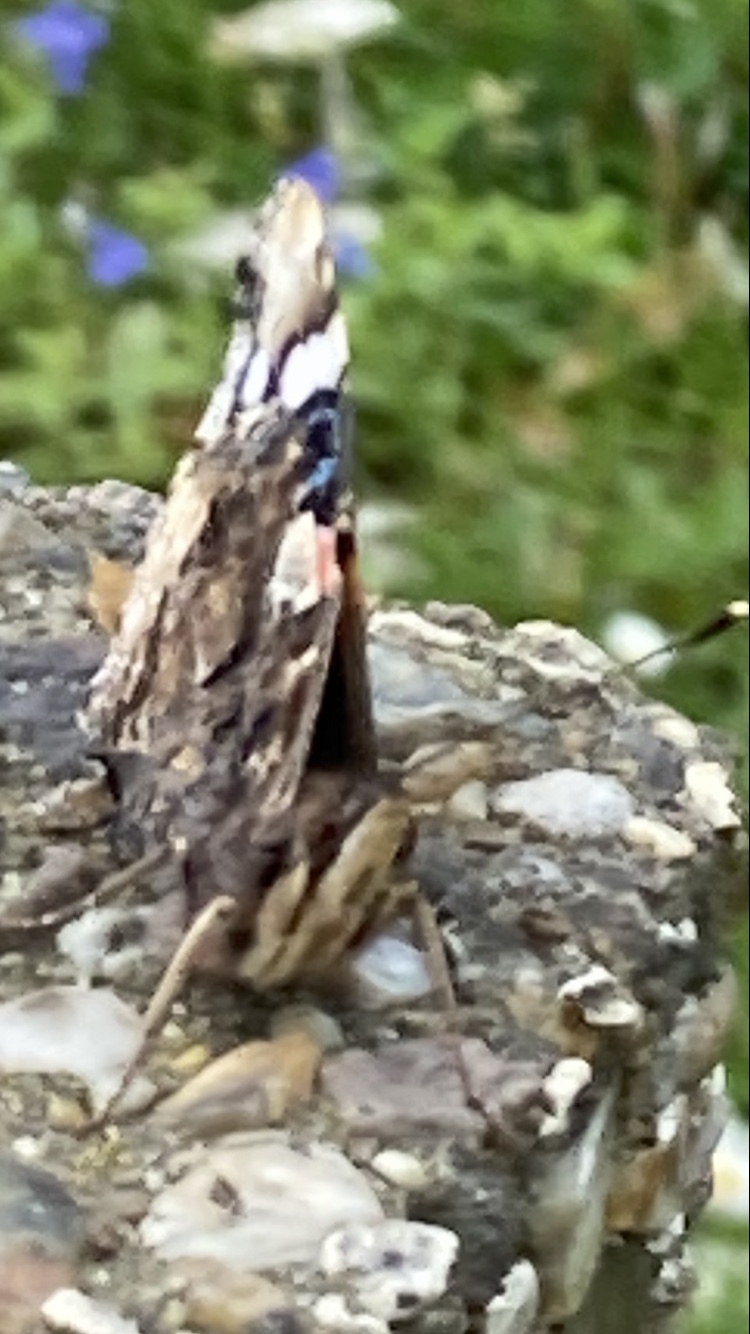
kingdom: Animalia
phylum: Arthropoda
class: Insecta
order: Lepidoptera
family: Nymphalidae
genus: Vanessa
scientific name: Vanessa atalanta
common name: Red admiral
